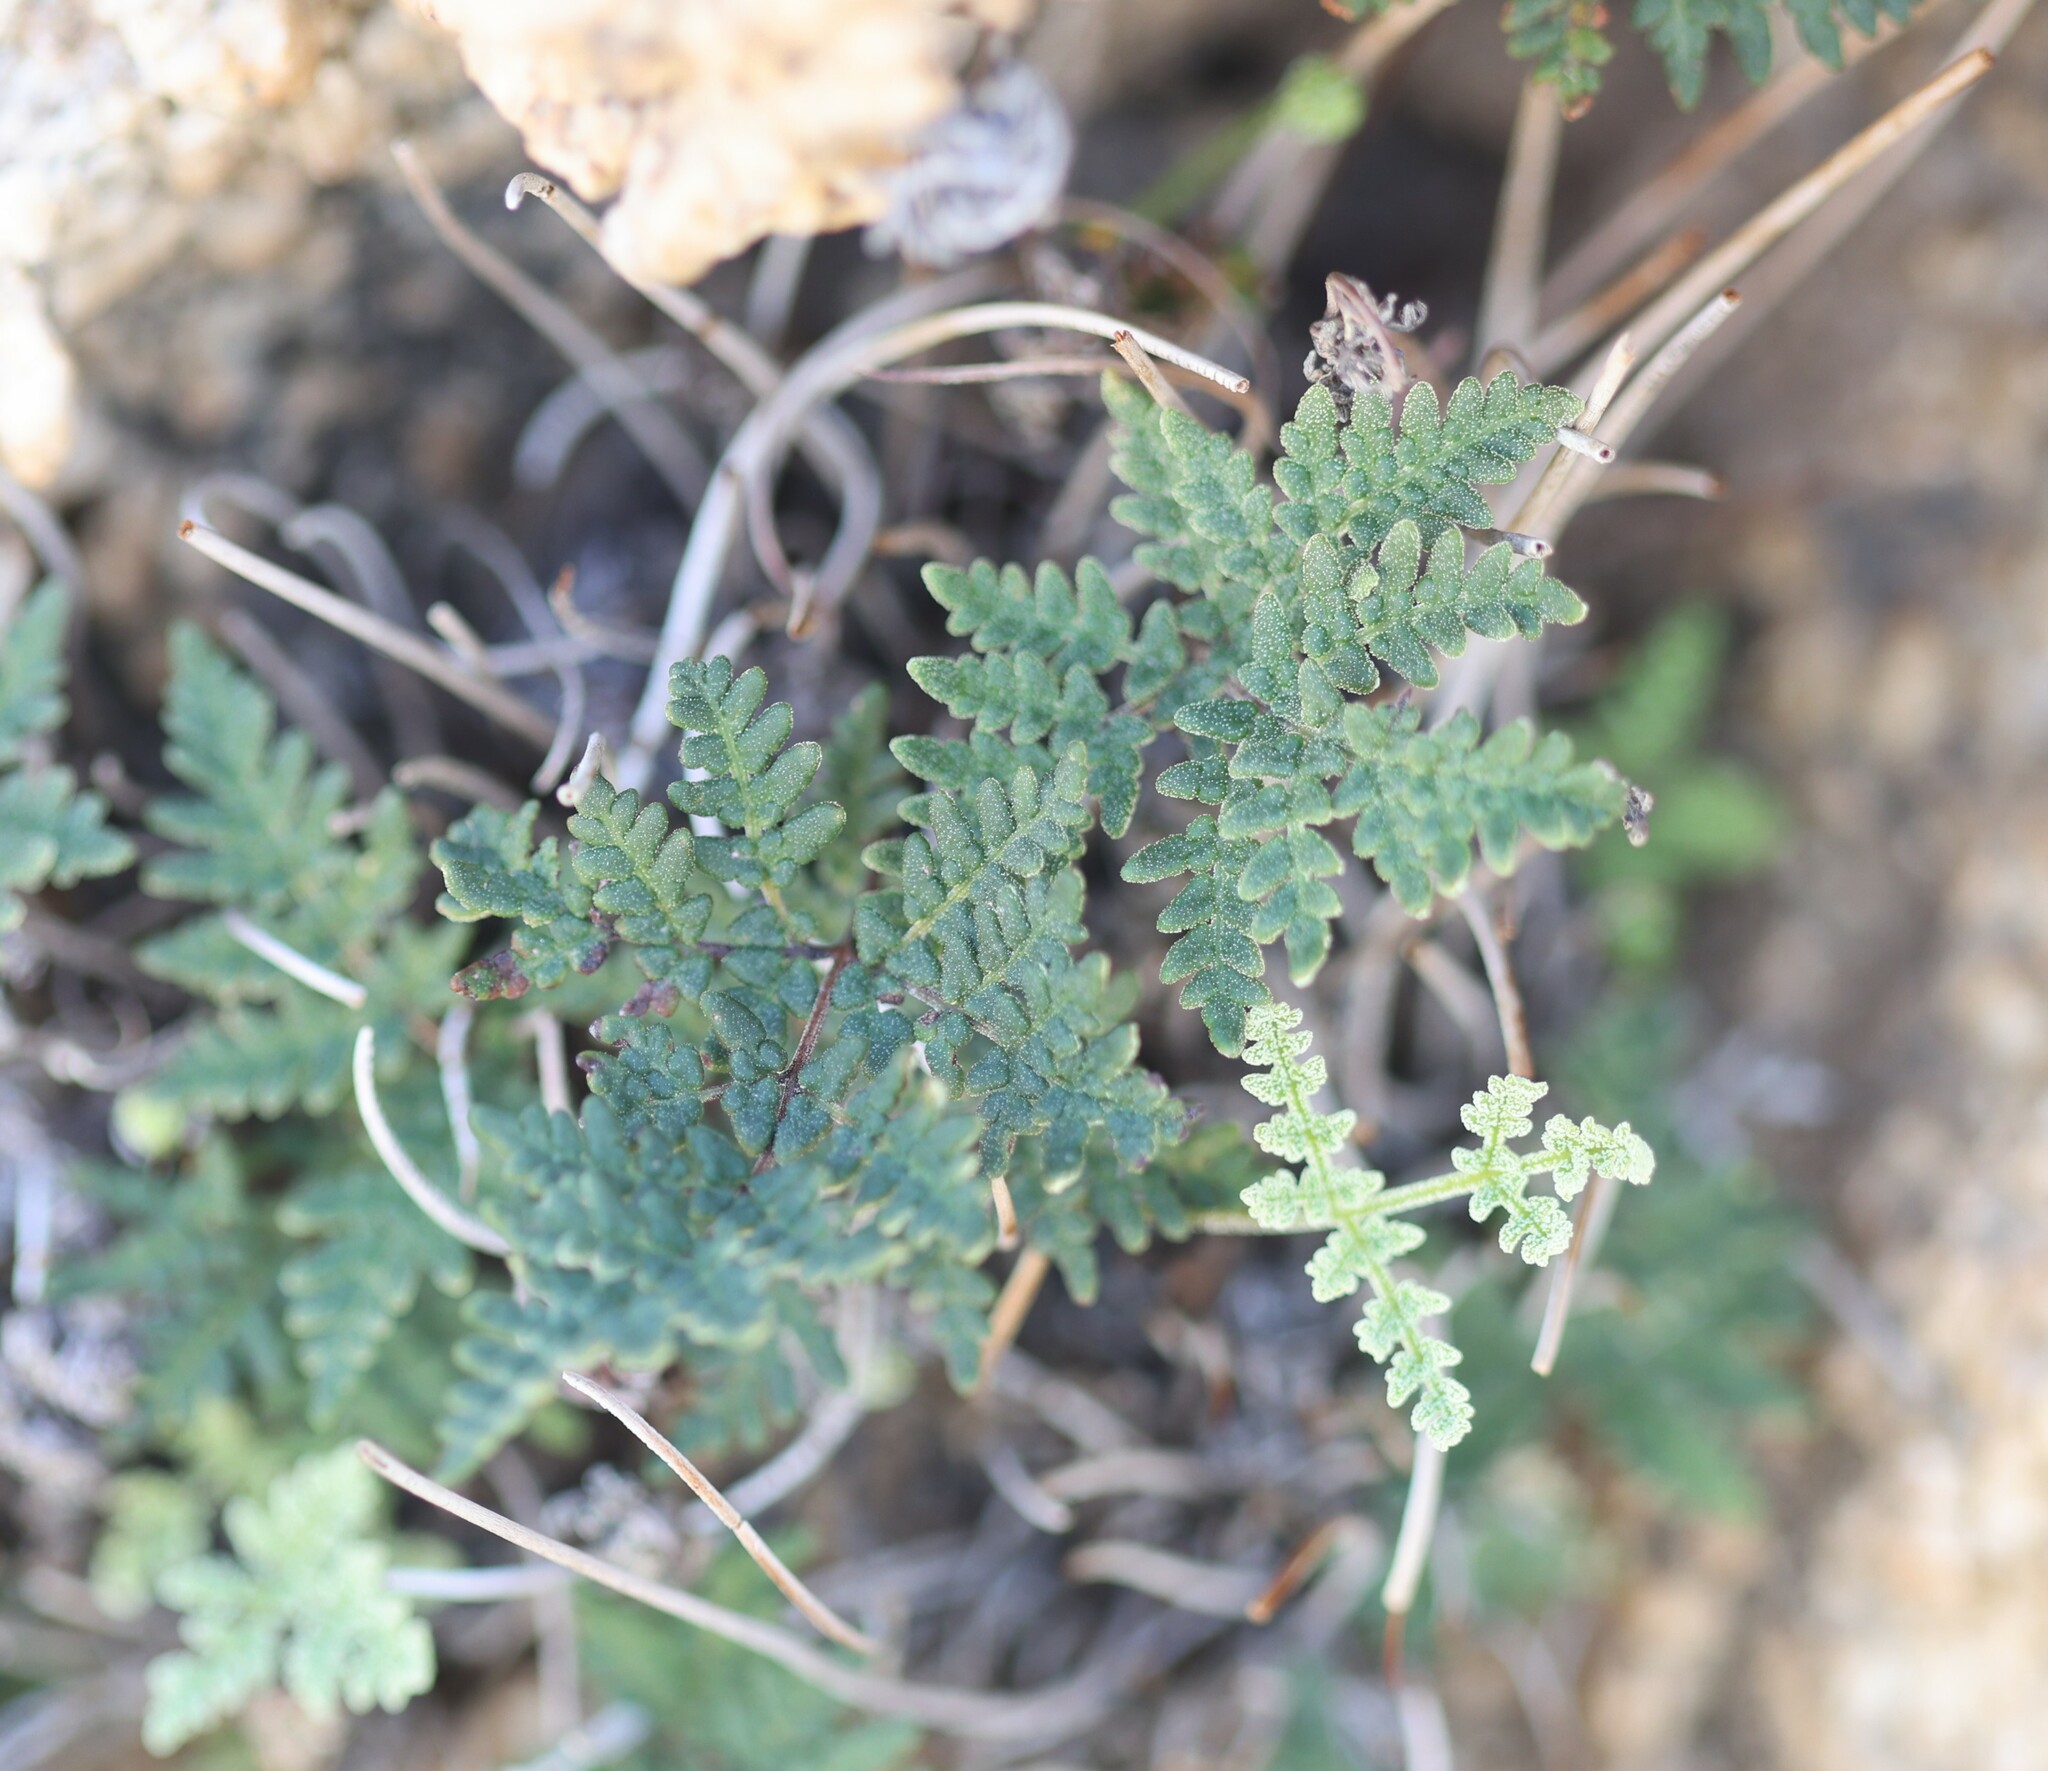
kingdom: Plantae
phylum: Tracheophyta
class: Polypodiopsida
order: Polypodiales
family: Pteridaceae
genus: Notholaena
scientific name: Notholaena californica
